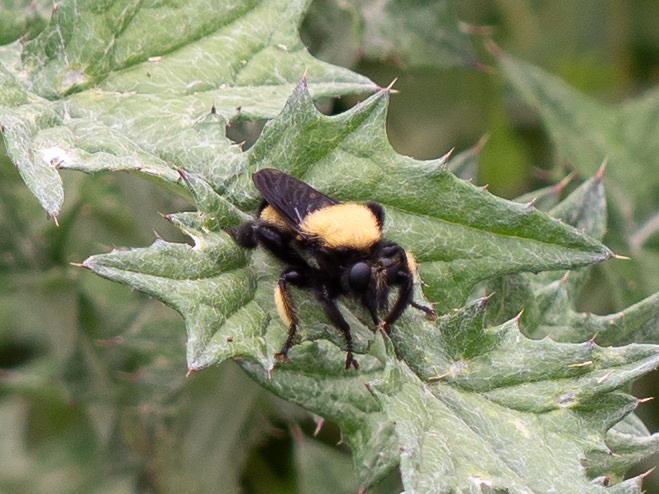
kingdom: Animalia
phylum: Arthropoda
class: Insecta
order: Diptera
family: Asilidae
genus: Laphria
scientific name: Laphria macquarti
